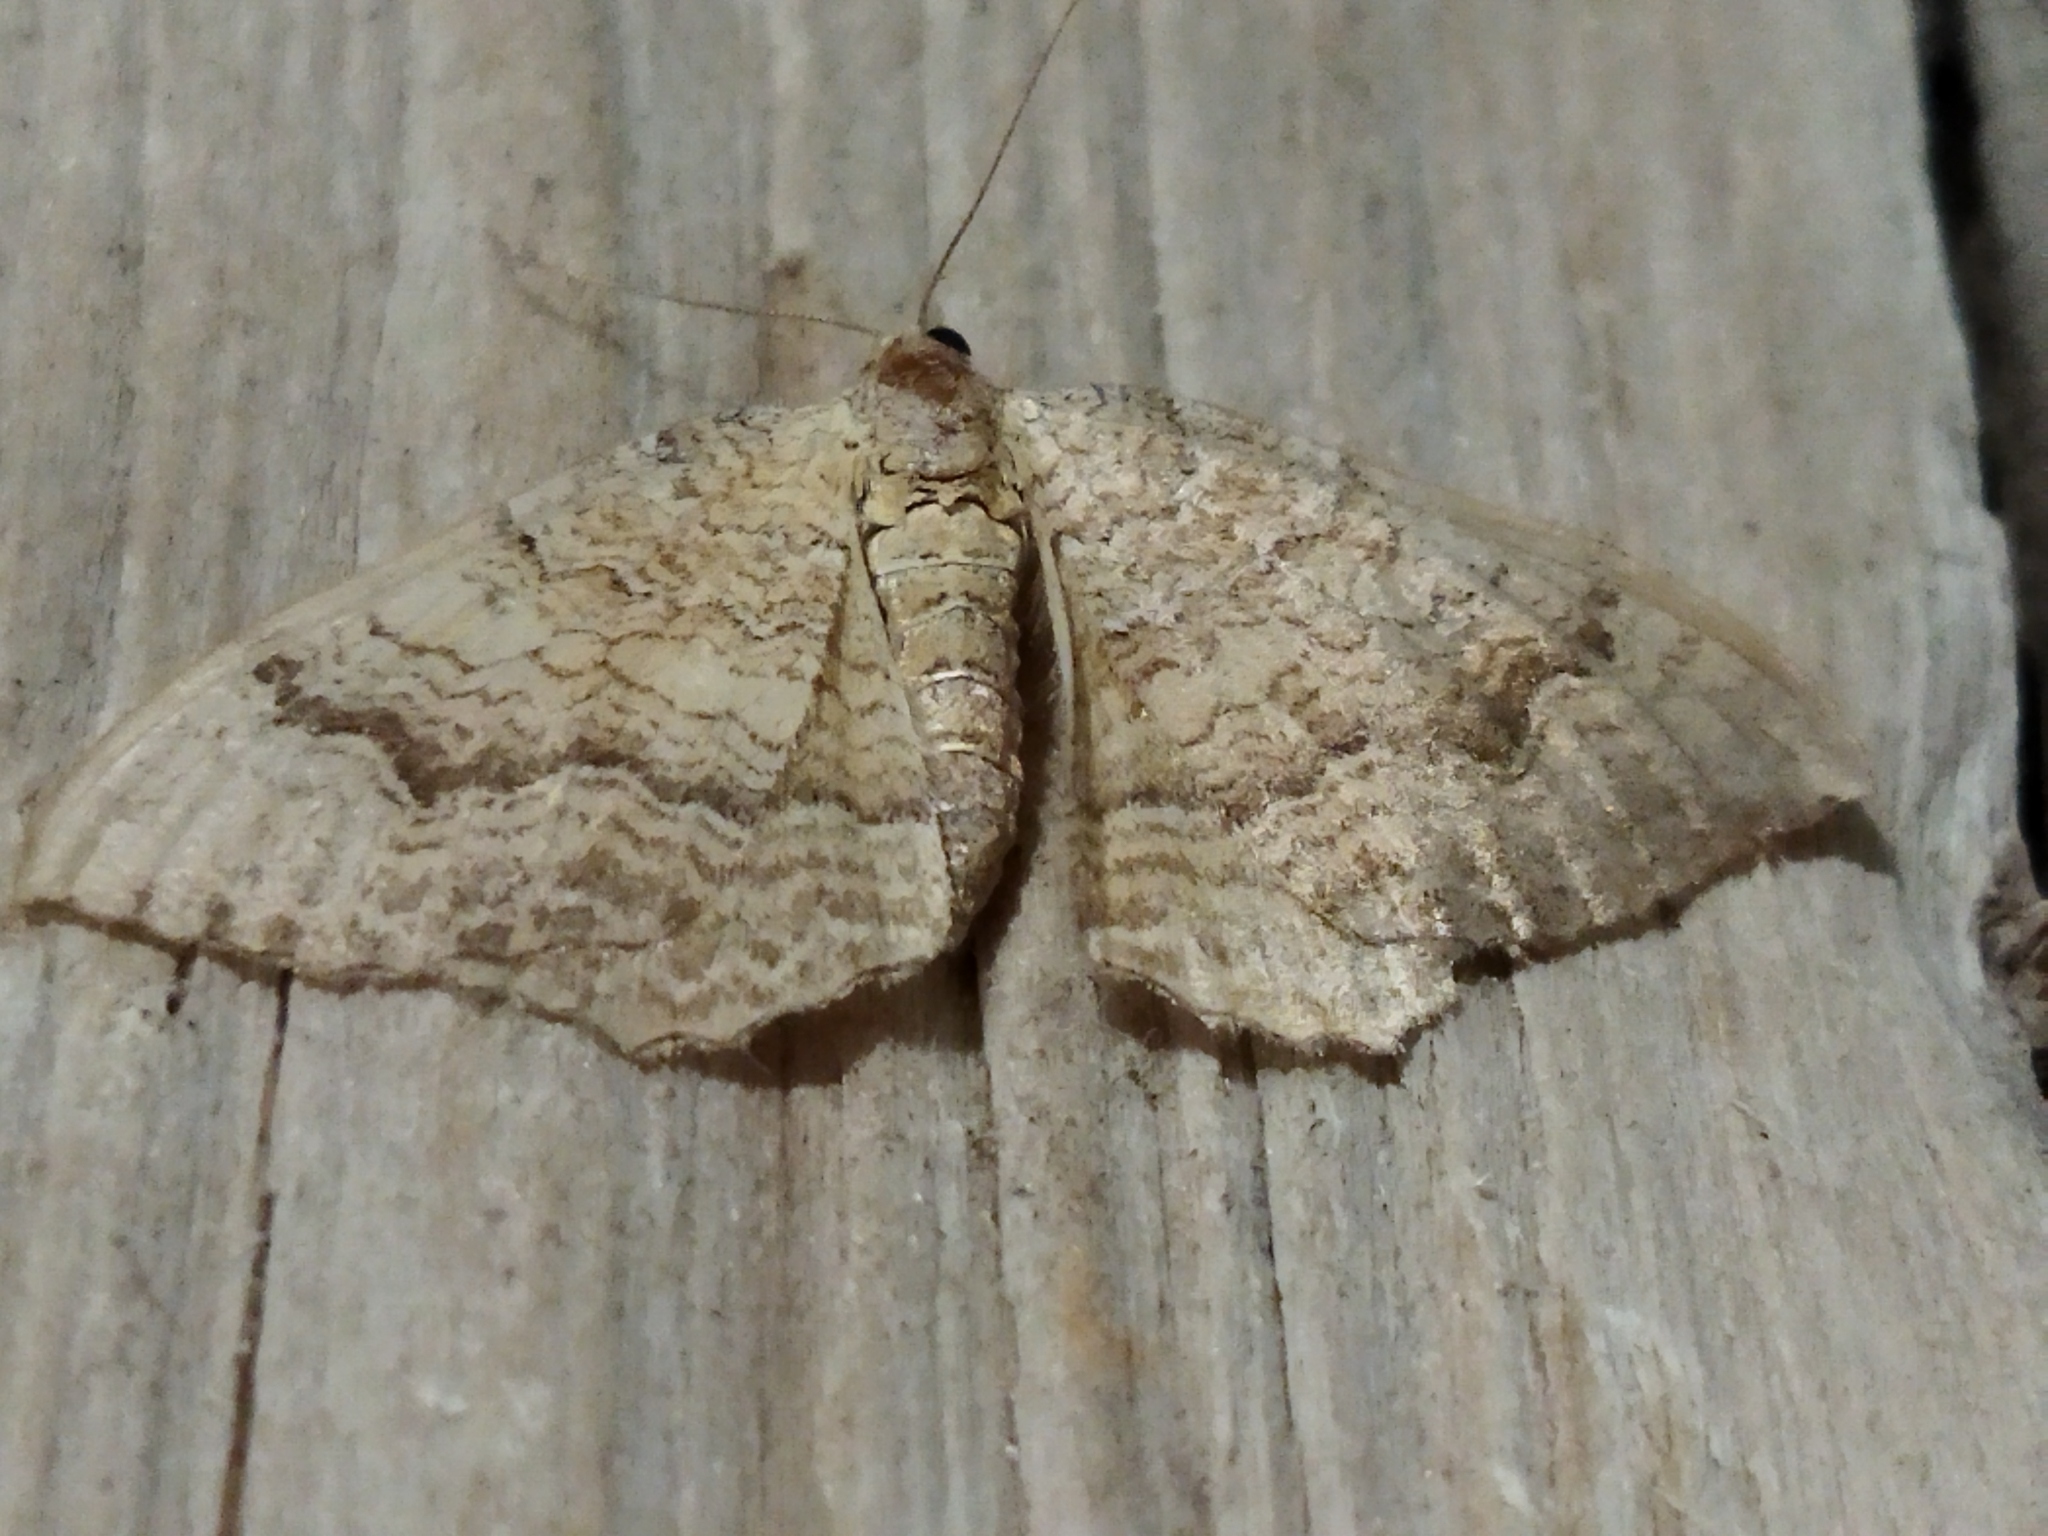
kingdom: Animalia
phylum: Arthropoda
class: Insecta
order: Lepidoptera
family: Geometridae
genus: Camptogramma
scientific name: Camptogramma bilineata
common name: Yellow shell
